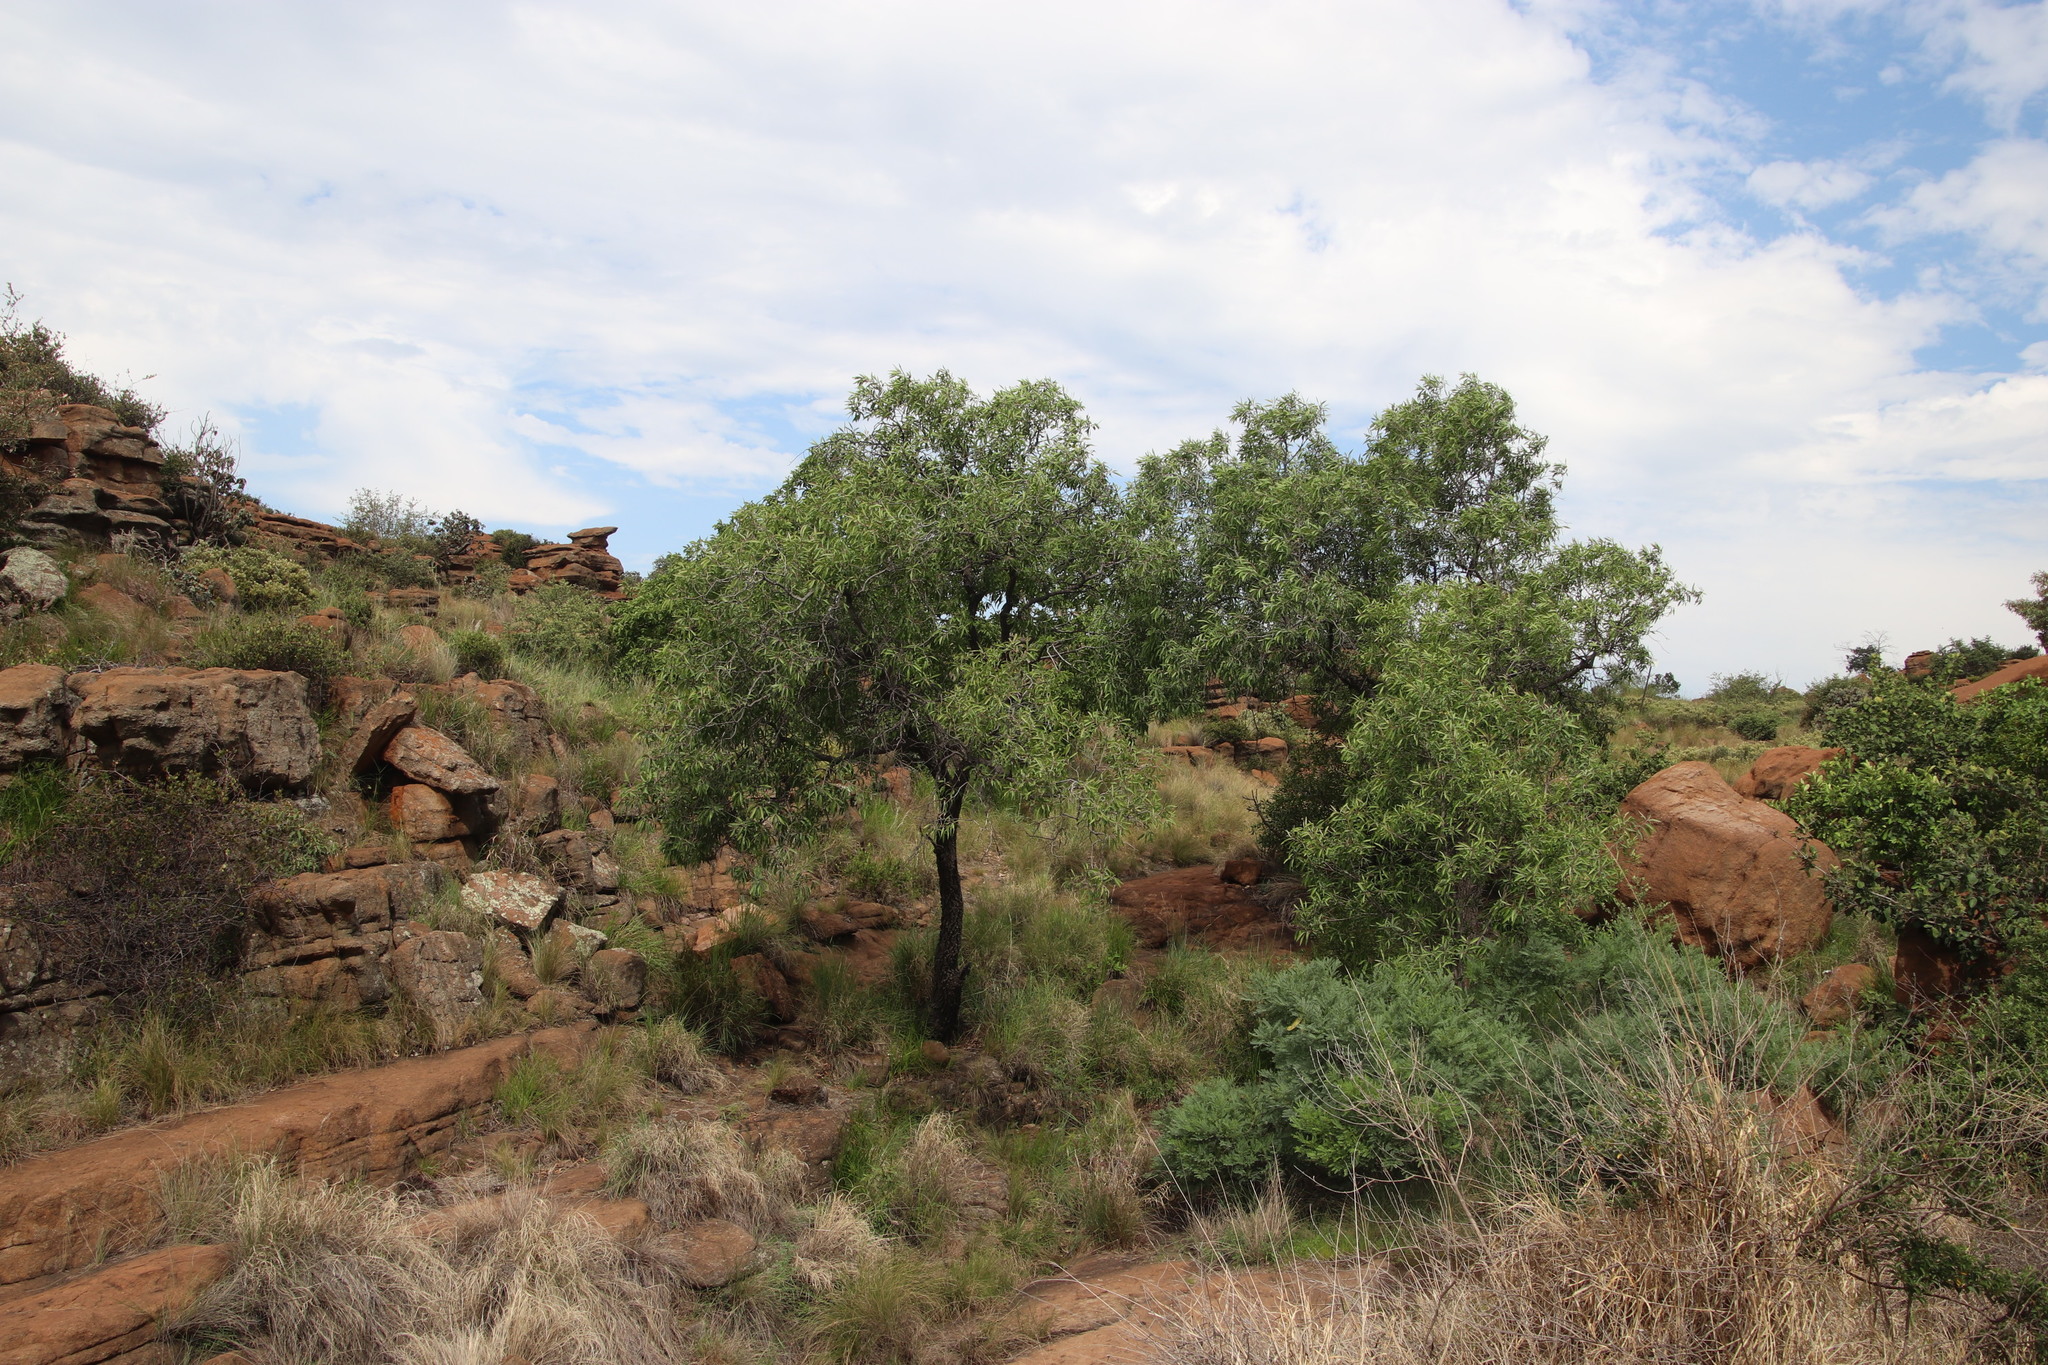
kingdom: Plantae
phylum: Tracheophyta
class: Magnoliopsida
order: Proteales
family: Proteaceae
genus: Faurea
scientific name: Faurea saligna
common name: African bean
